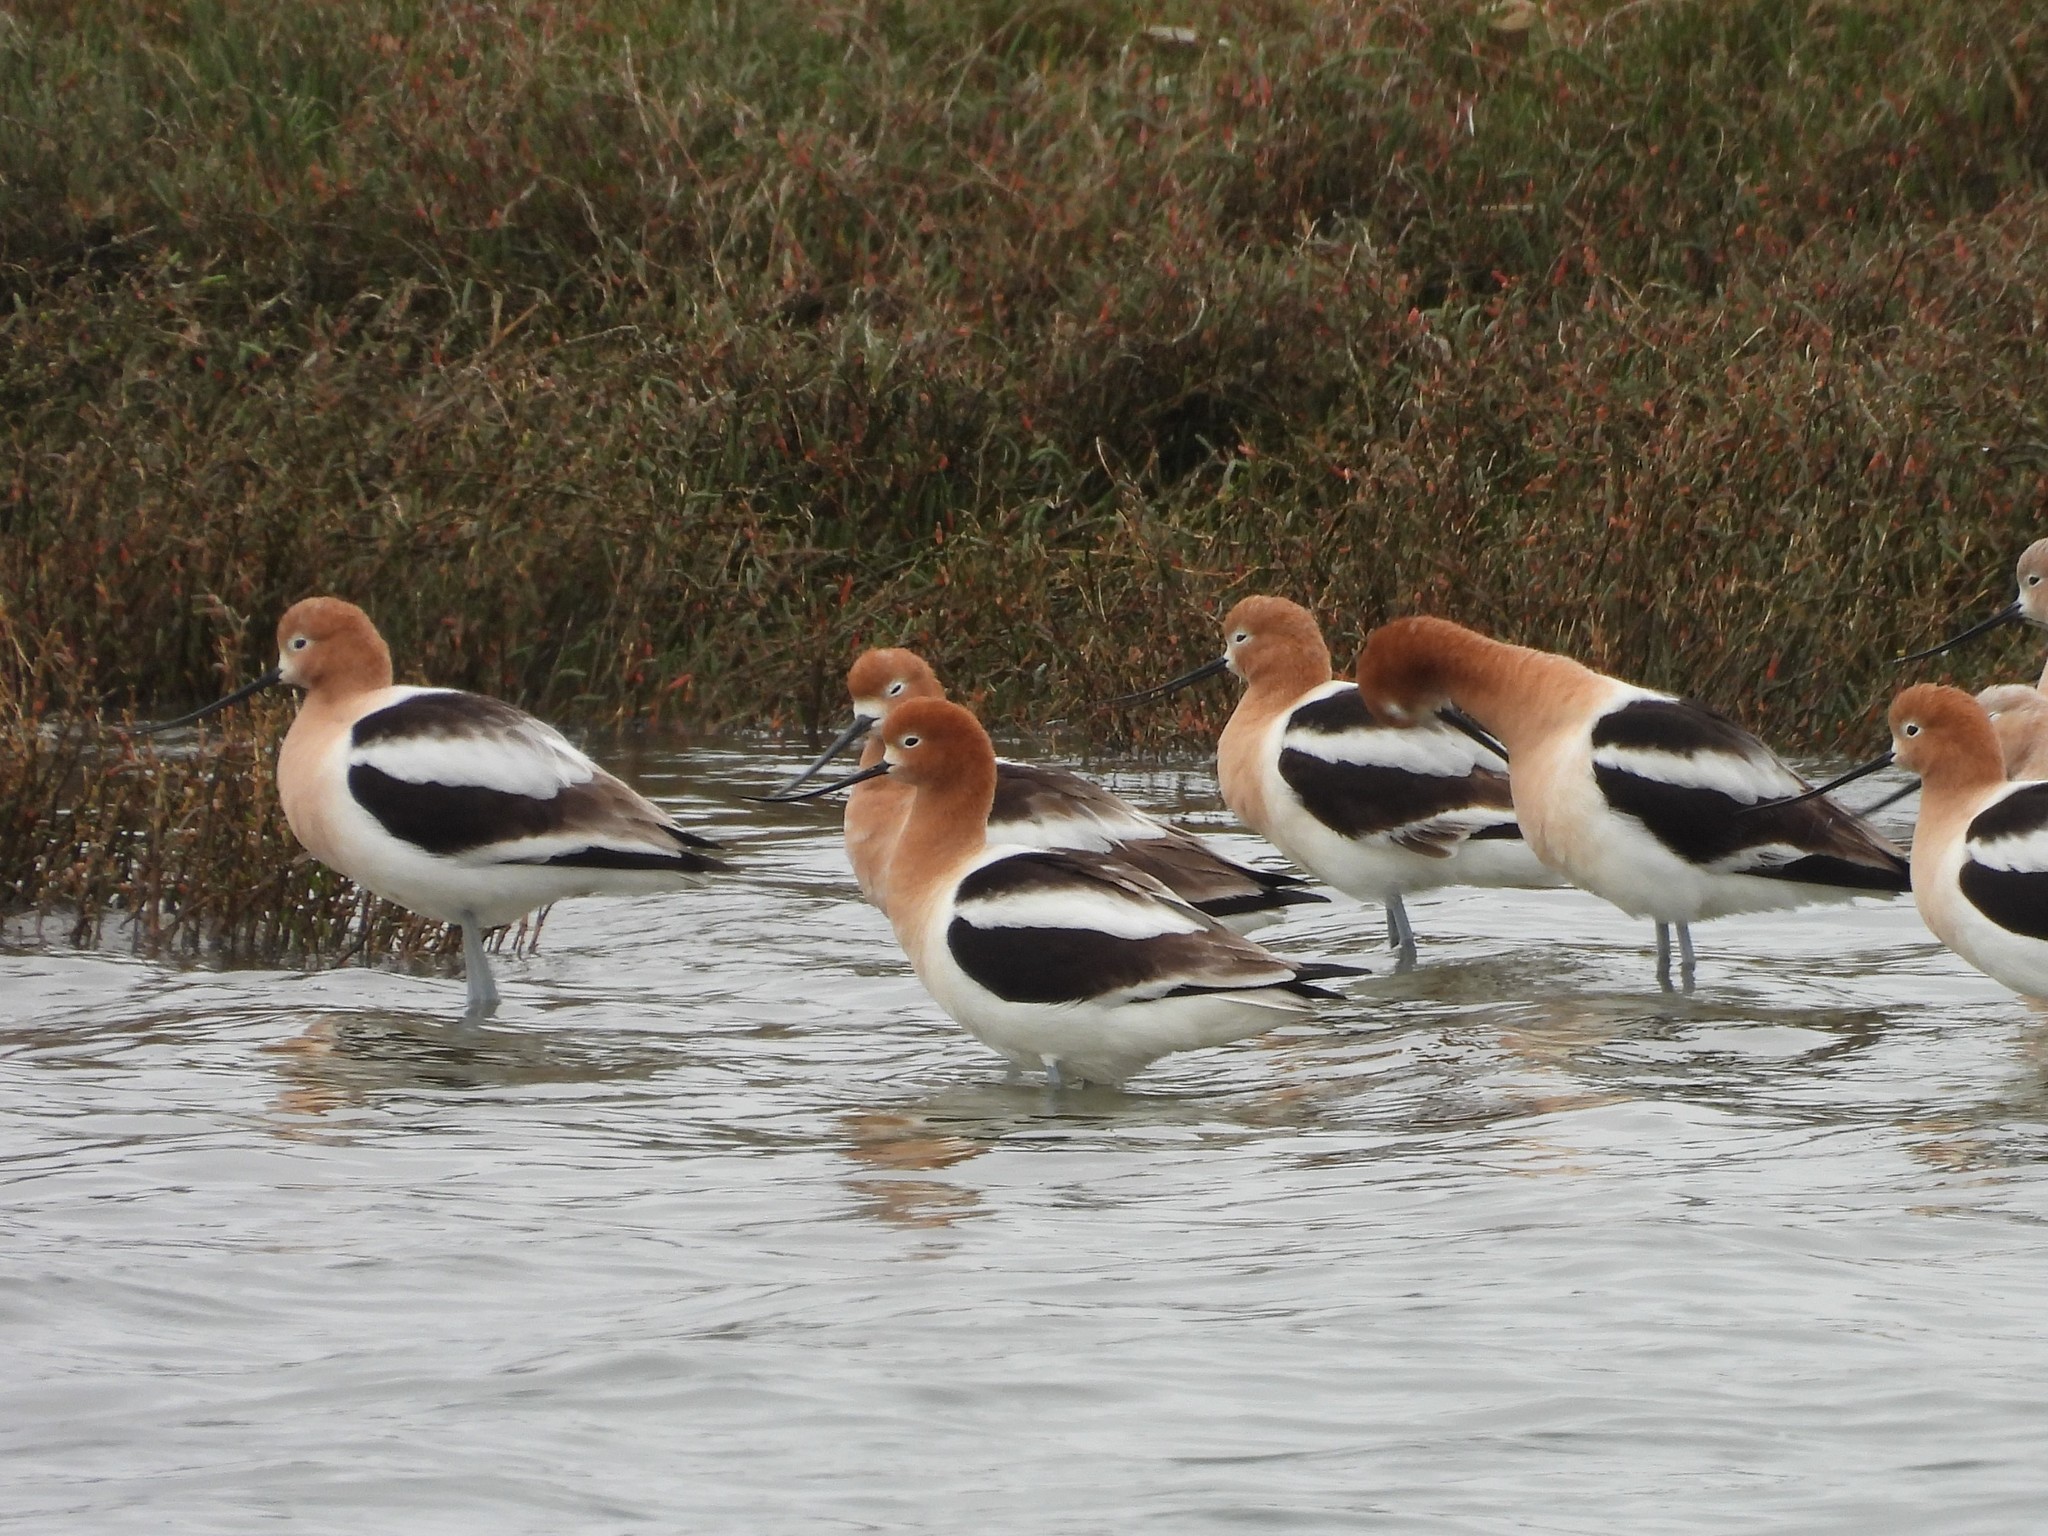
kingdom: Animalia
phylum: Chordata
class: Aves
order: Charadriiformes
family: Recurvirostridae
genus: Recurvirostra
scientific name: Recurvirostra americana
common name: American avocet
